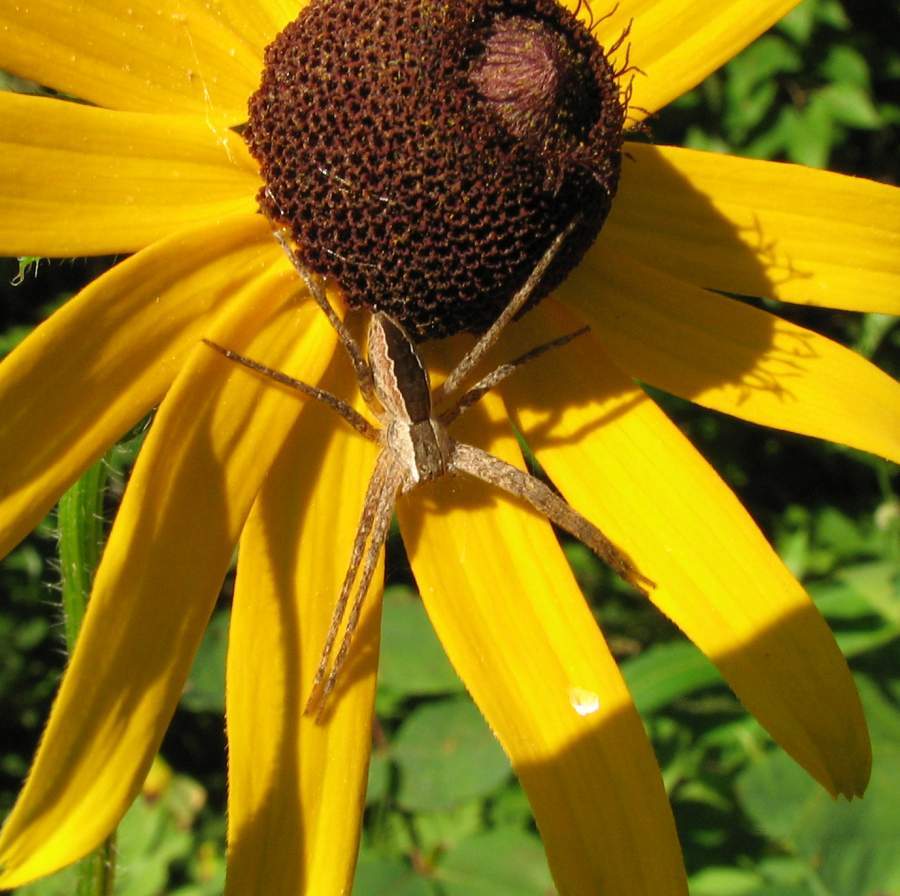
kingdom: Animalia
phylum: Arthropoda
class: Arachnida
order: Araneae
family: Pisauridae
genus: Pisaurina
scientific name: Pisaurina mira
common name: American nursery web spider
